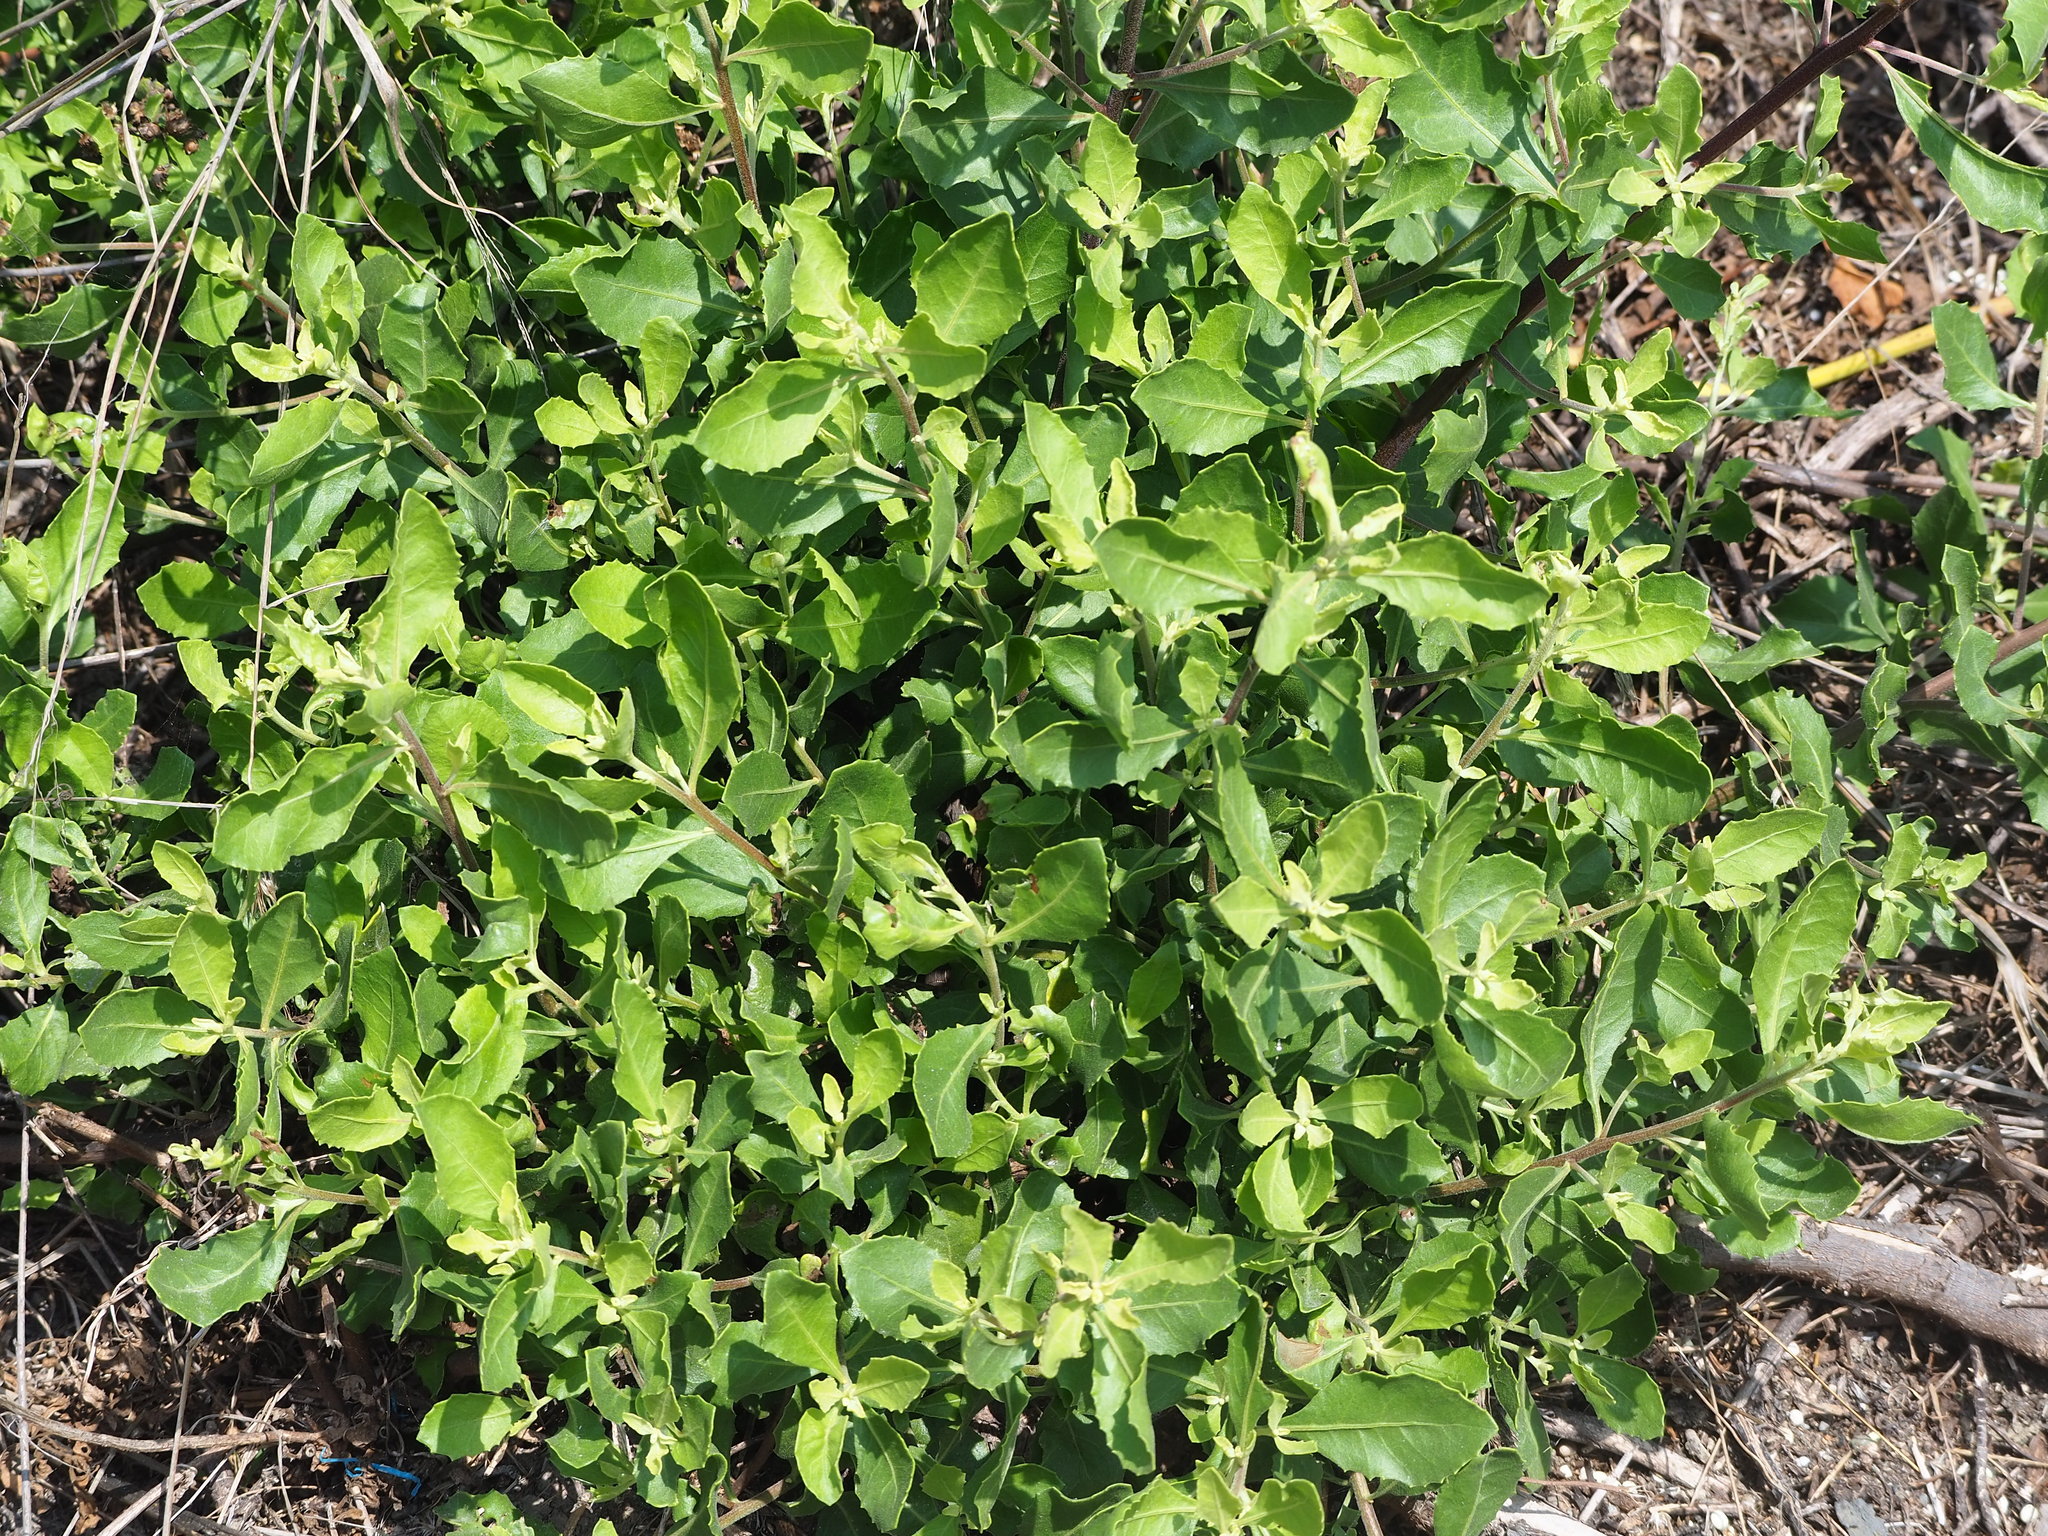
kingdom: Plantae
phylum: Tracheophyta
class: Magnoliopsida
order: Asterales
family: Asteraceae
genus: Pluchea
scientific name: Pluchea indica
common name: Indian fleabane
